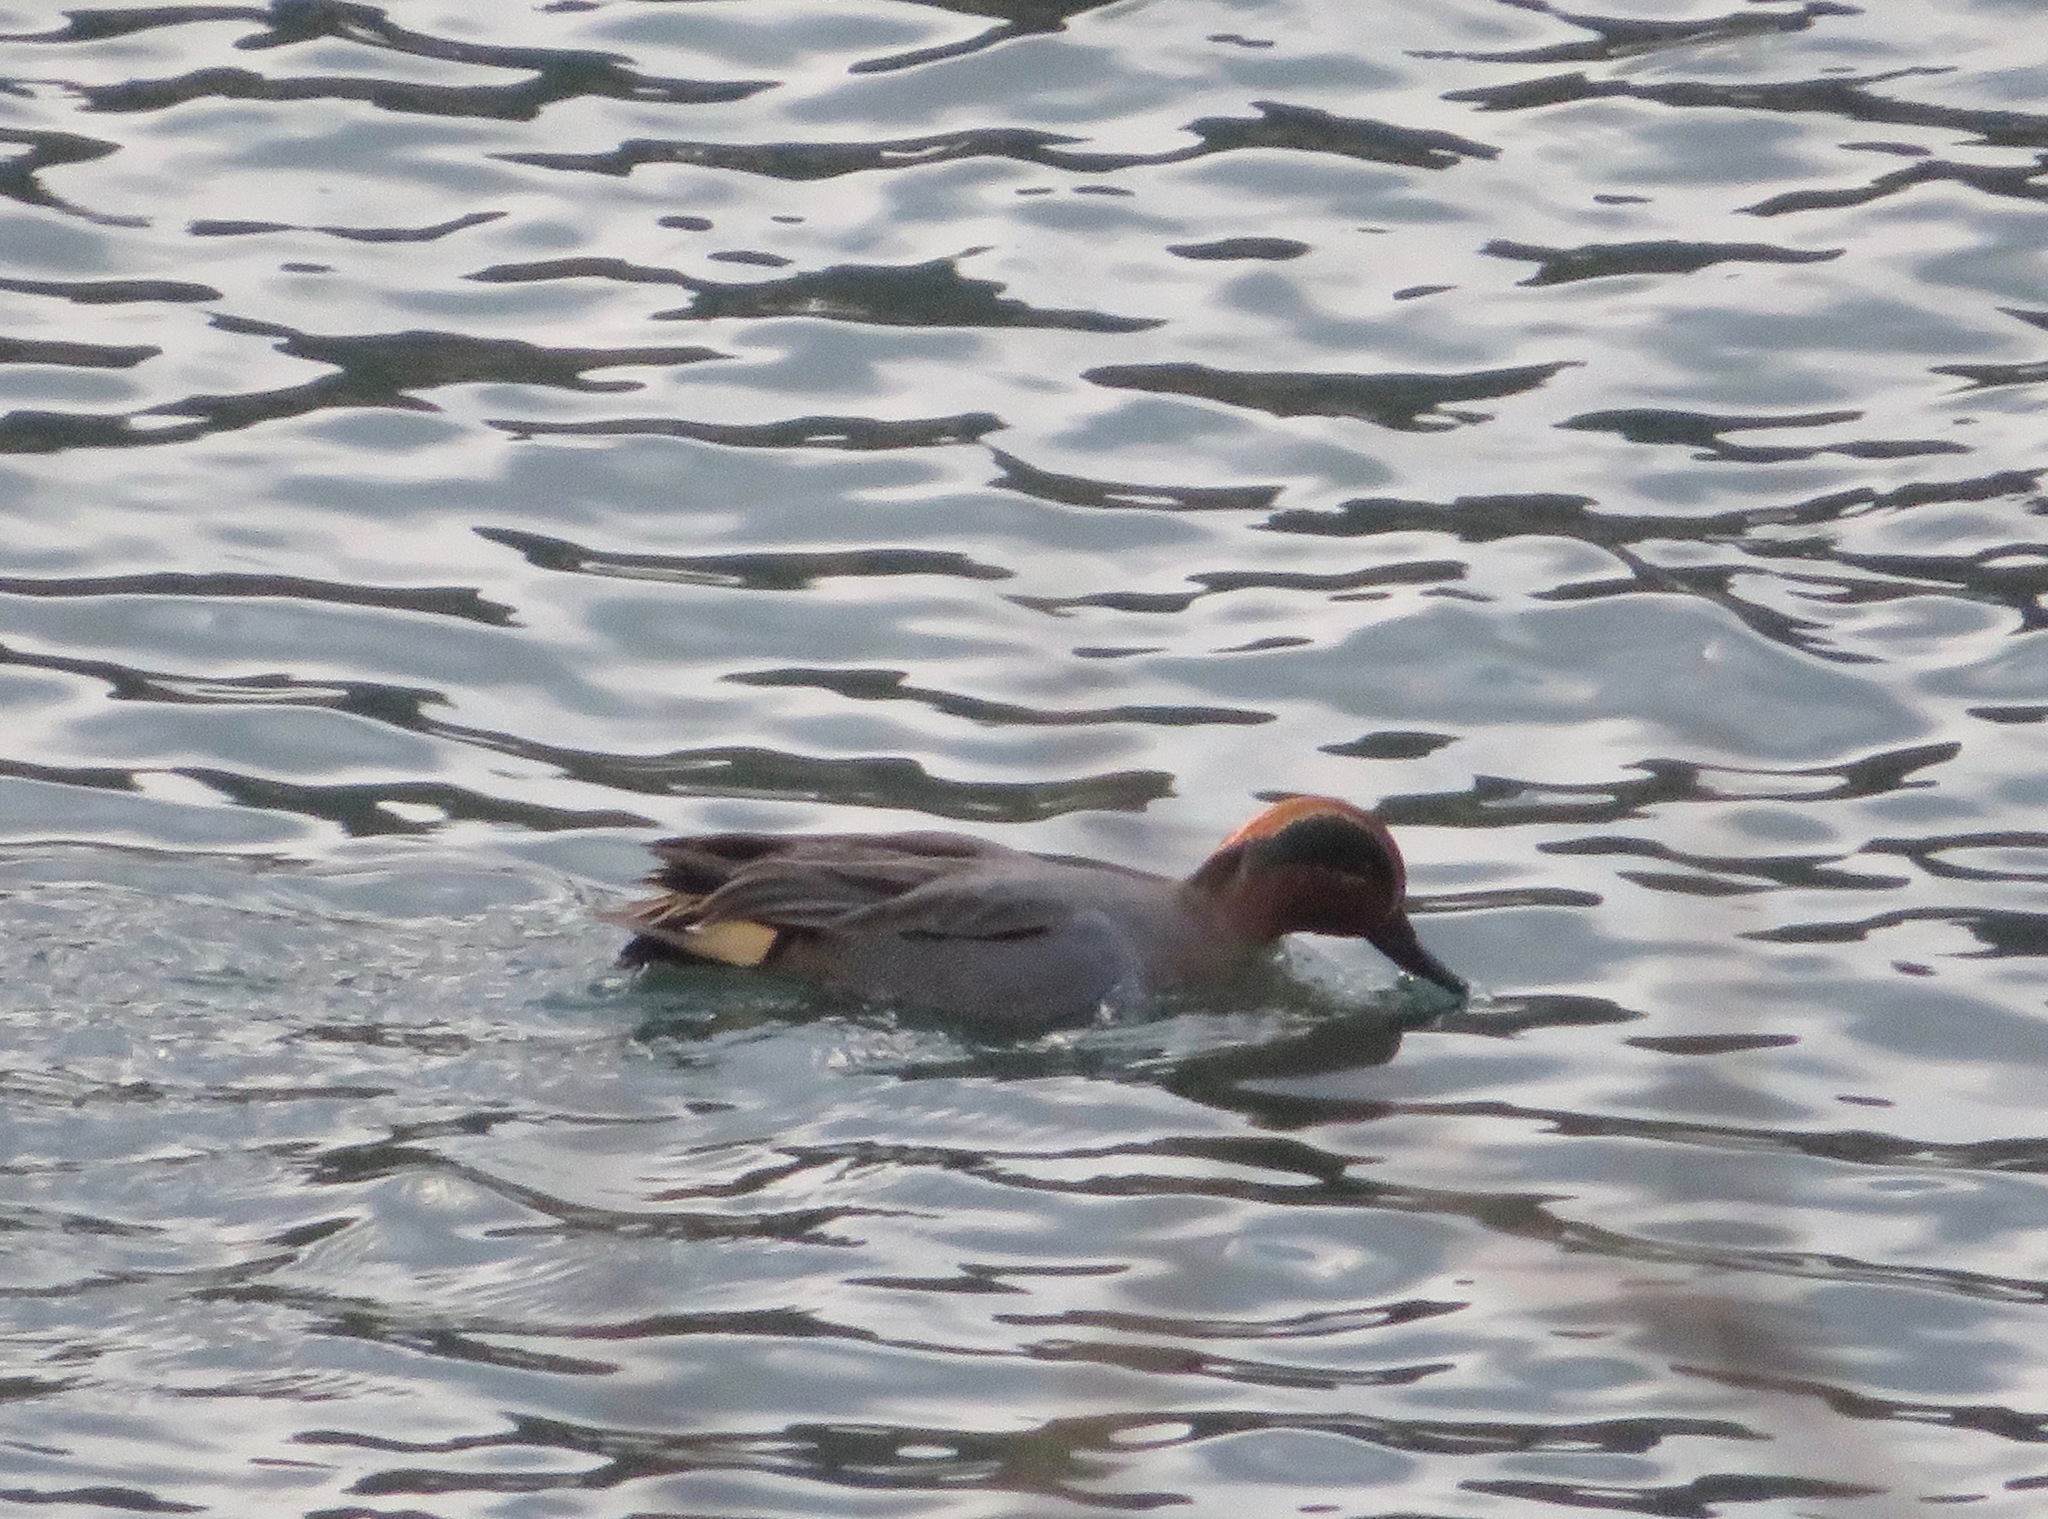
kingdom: Animalia
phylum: Chordata
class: Aves
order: Anseriformes
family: Anatidae
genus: Anas
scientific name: Anas crecca
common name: Eurasian teal
